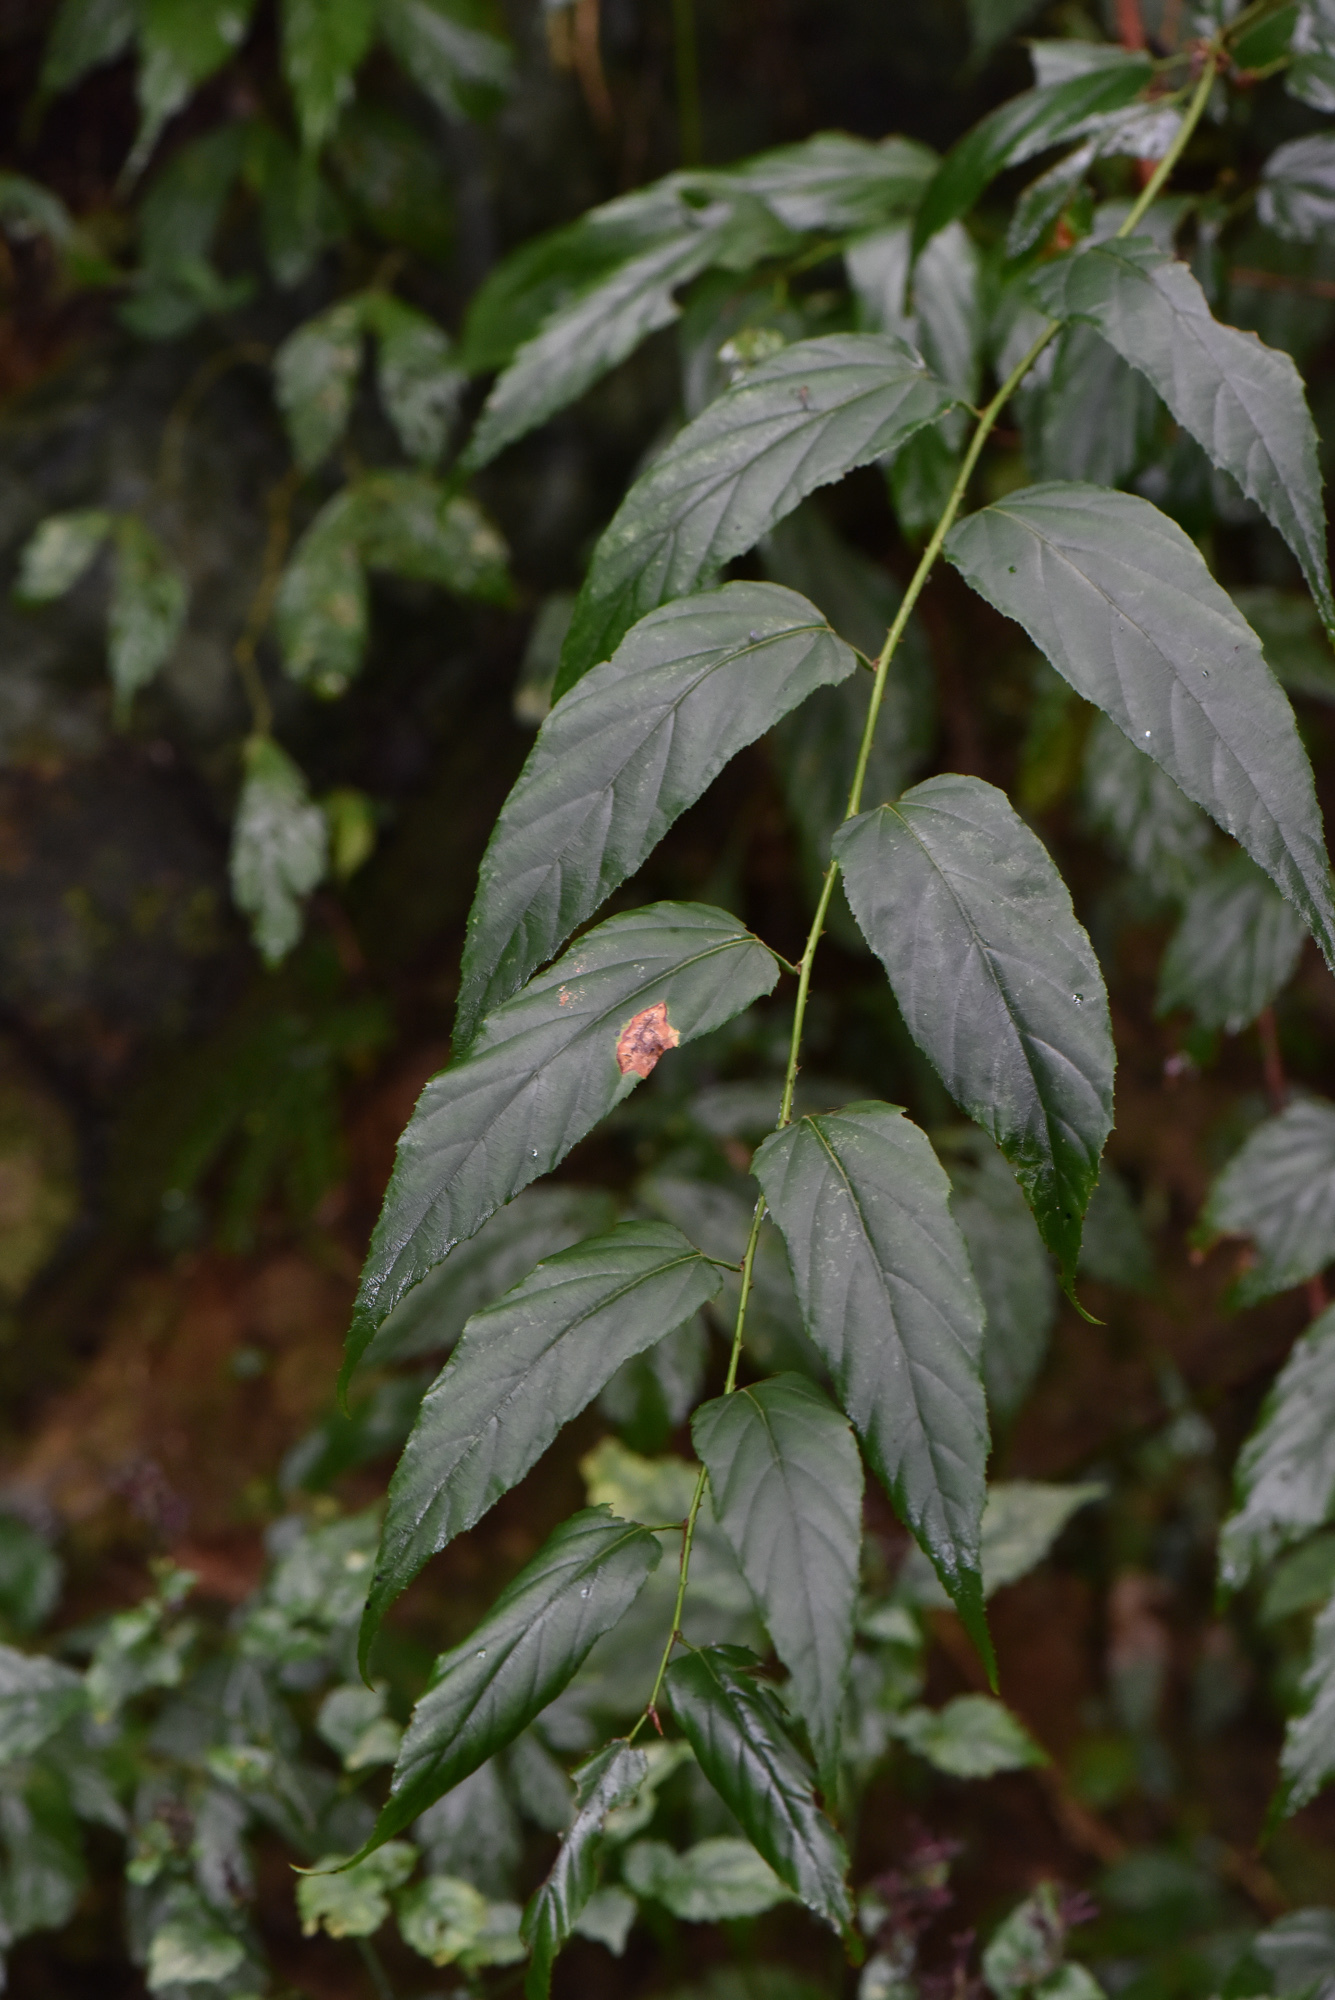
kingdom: Plantae
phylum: Tracheophyta
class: Magnoliopsida
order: Rosales
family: Rosaceae
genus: Rubus
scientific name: Rubus swinhoei
